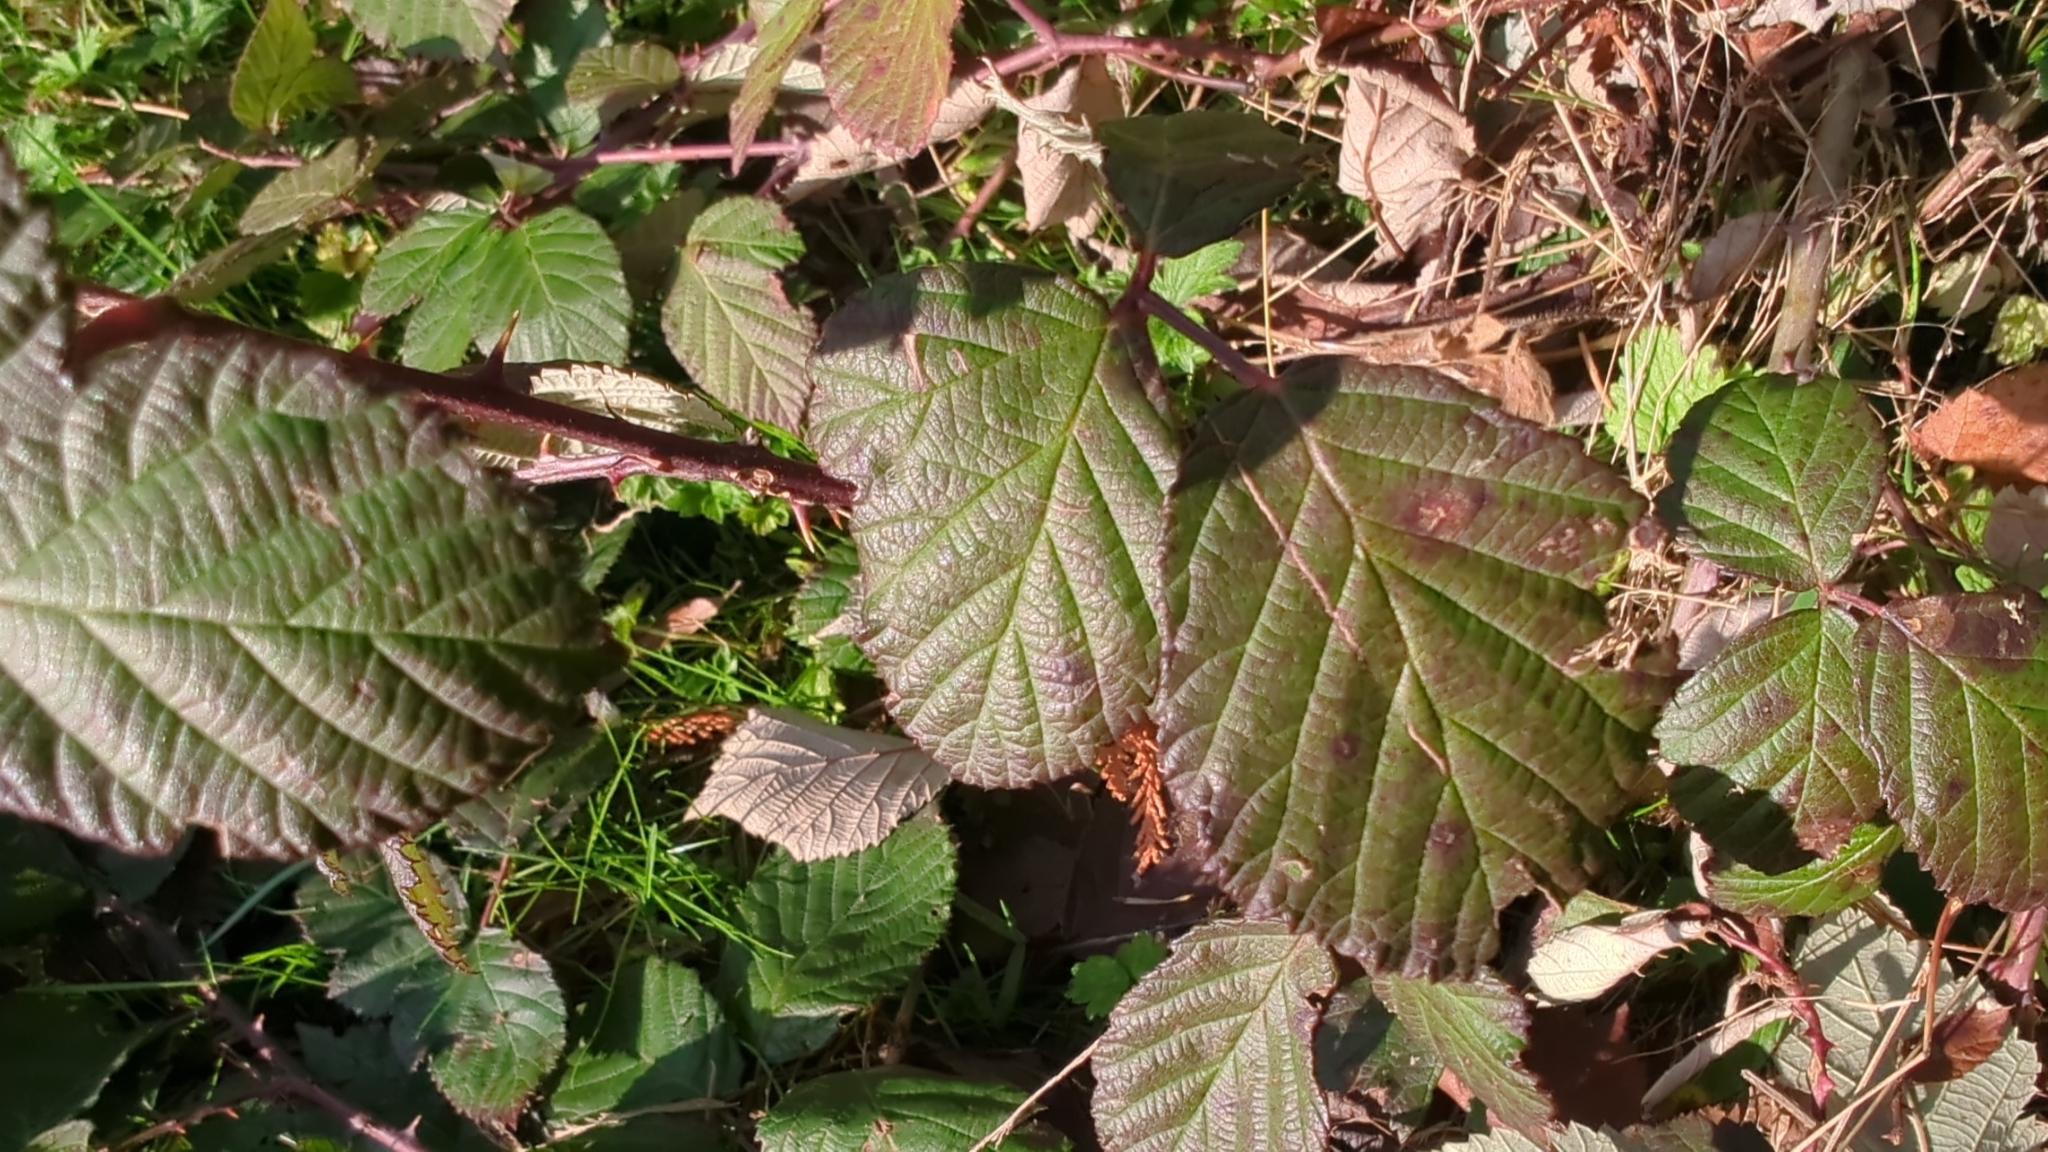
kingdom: Plantae
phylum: Tracheophyta
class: Magnoliopsida
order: Rosales
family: Rosaceae
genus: Rubus
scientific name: Rubus bifrons
